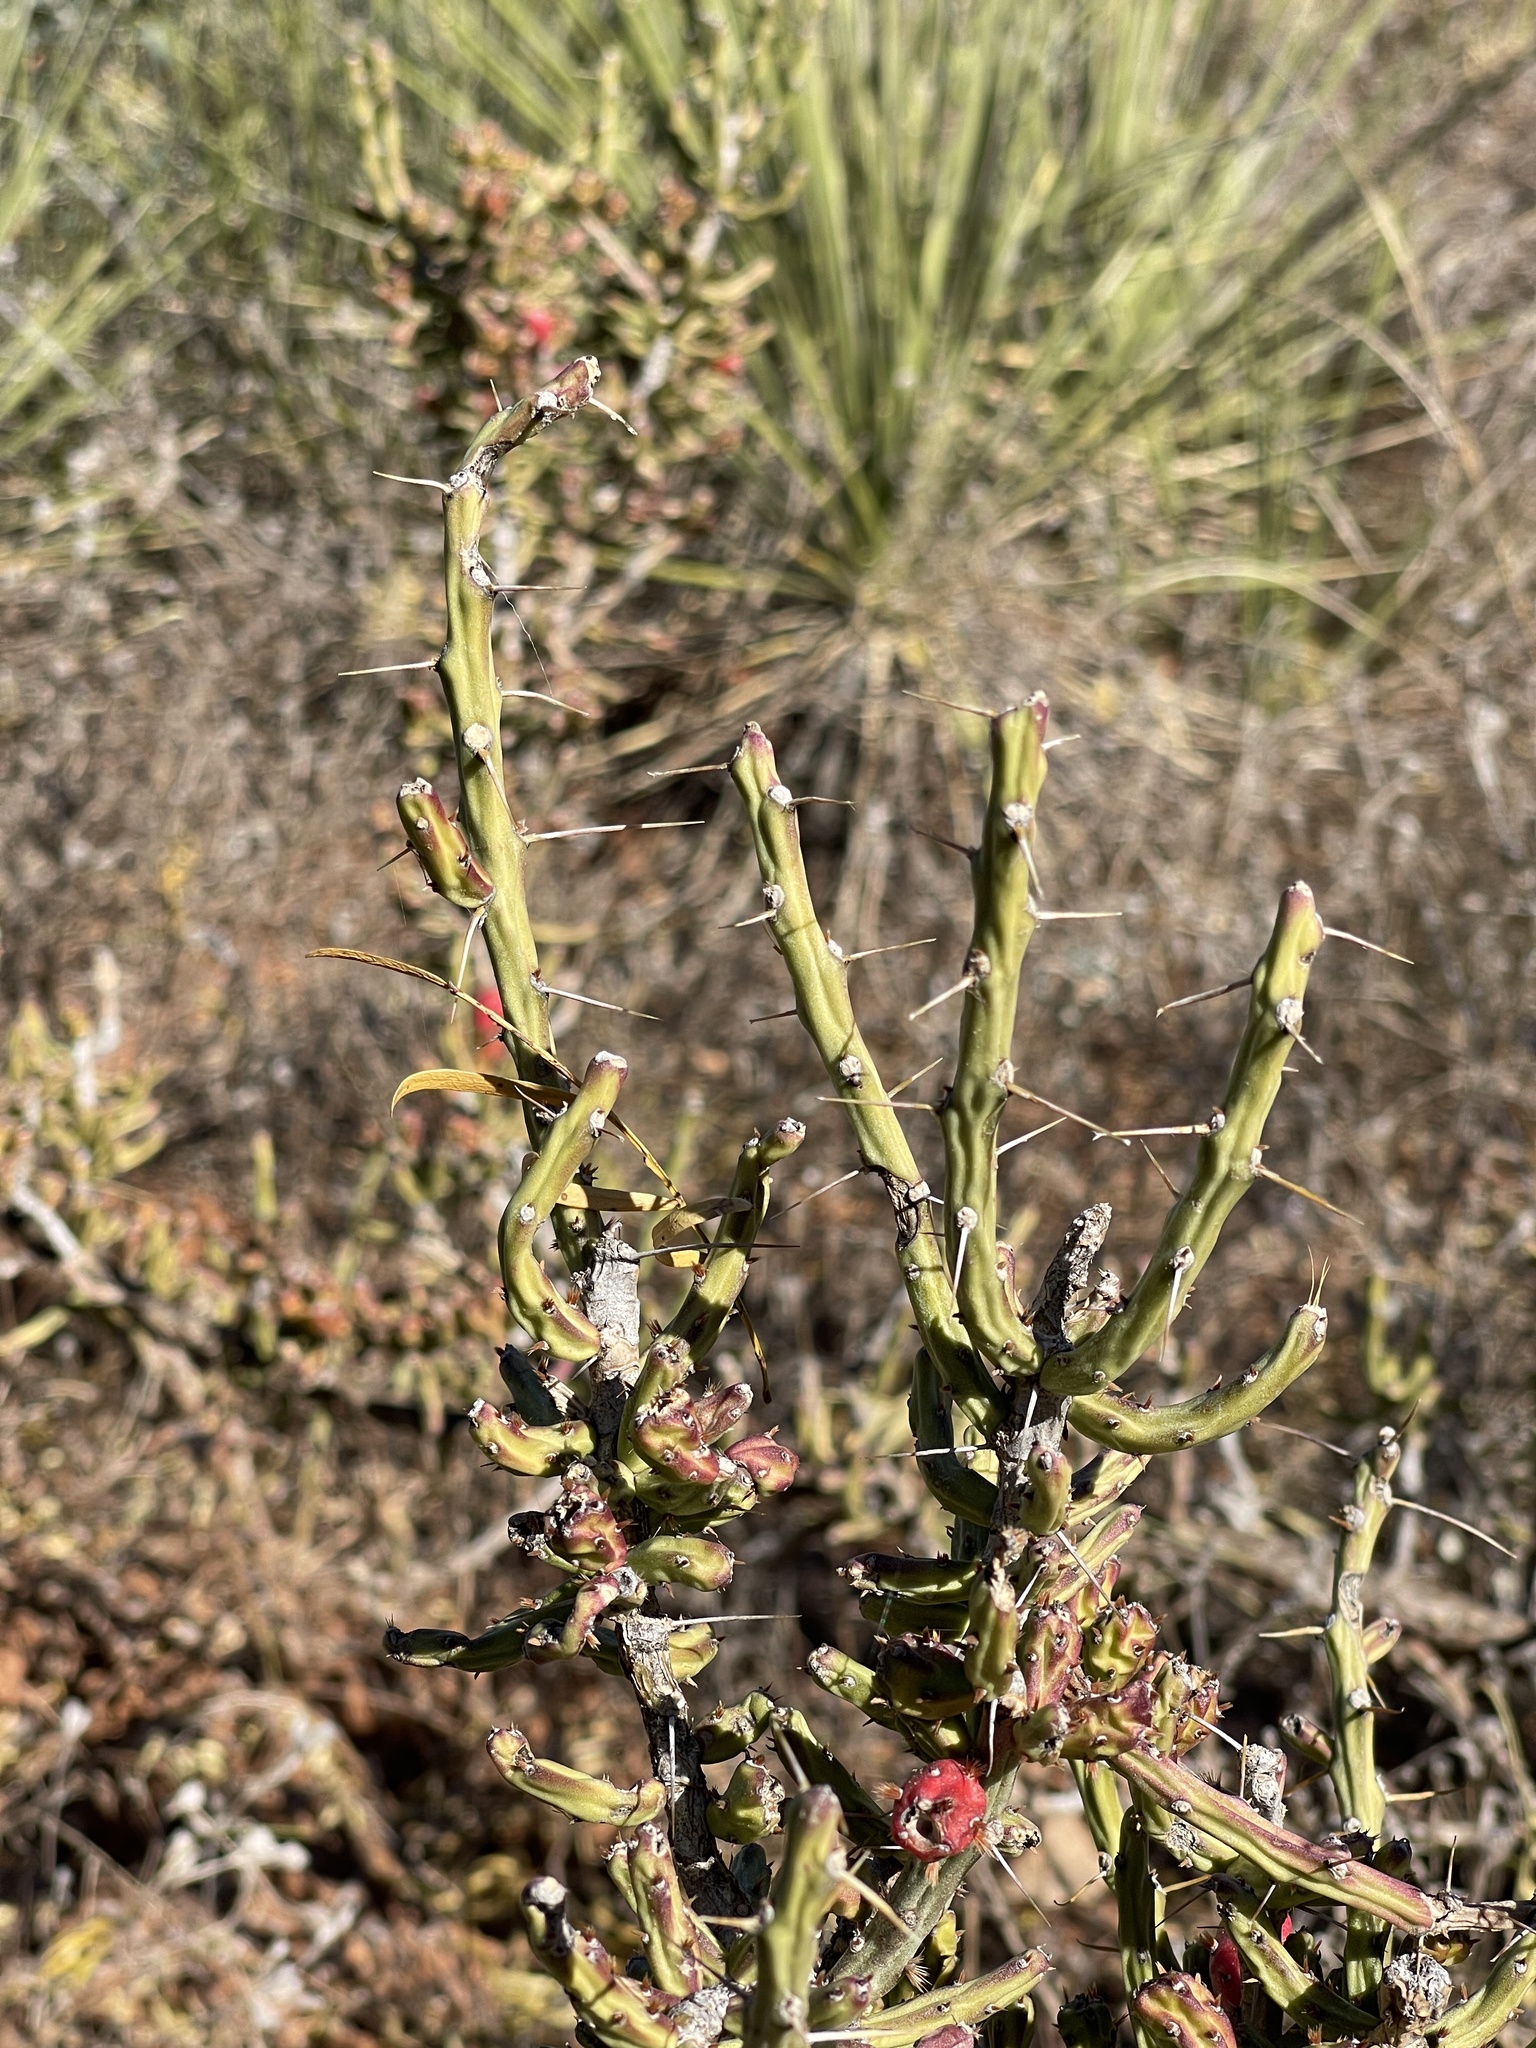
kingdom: Plantae
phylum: Tracheophyta
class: Magnoliopsida
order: Caryophyllales
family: Cactaceae
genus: Cylindropuntia
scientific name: Cylindropuntia leptocaulis
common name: Christmas cactus
